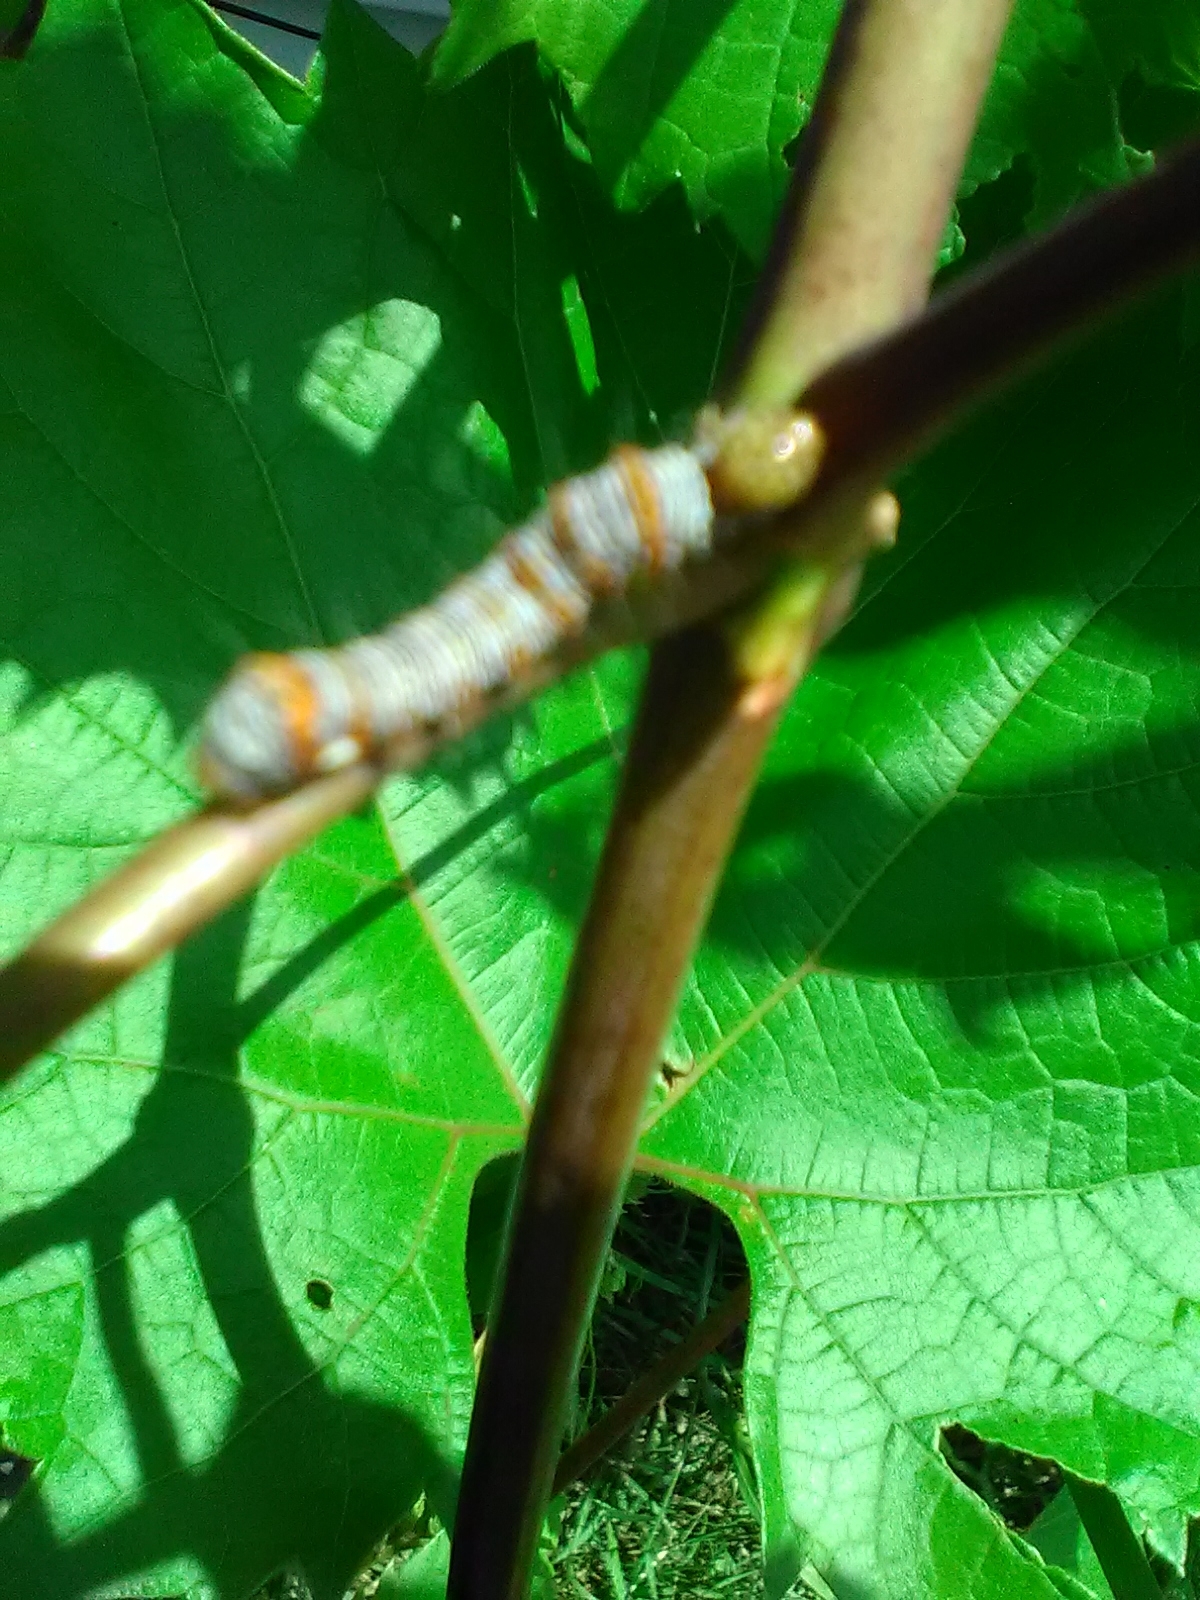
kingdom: Animalia
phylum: Arthropoda
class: Insecta
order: Lepidoptera
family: Noctuidae
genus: Alypia
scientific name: Alypia octomaculata
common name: Eight-spotted forester
